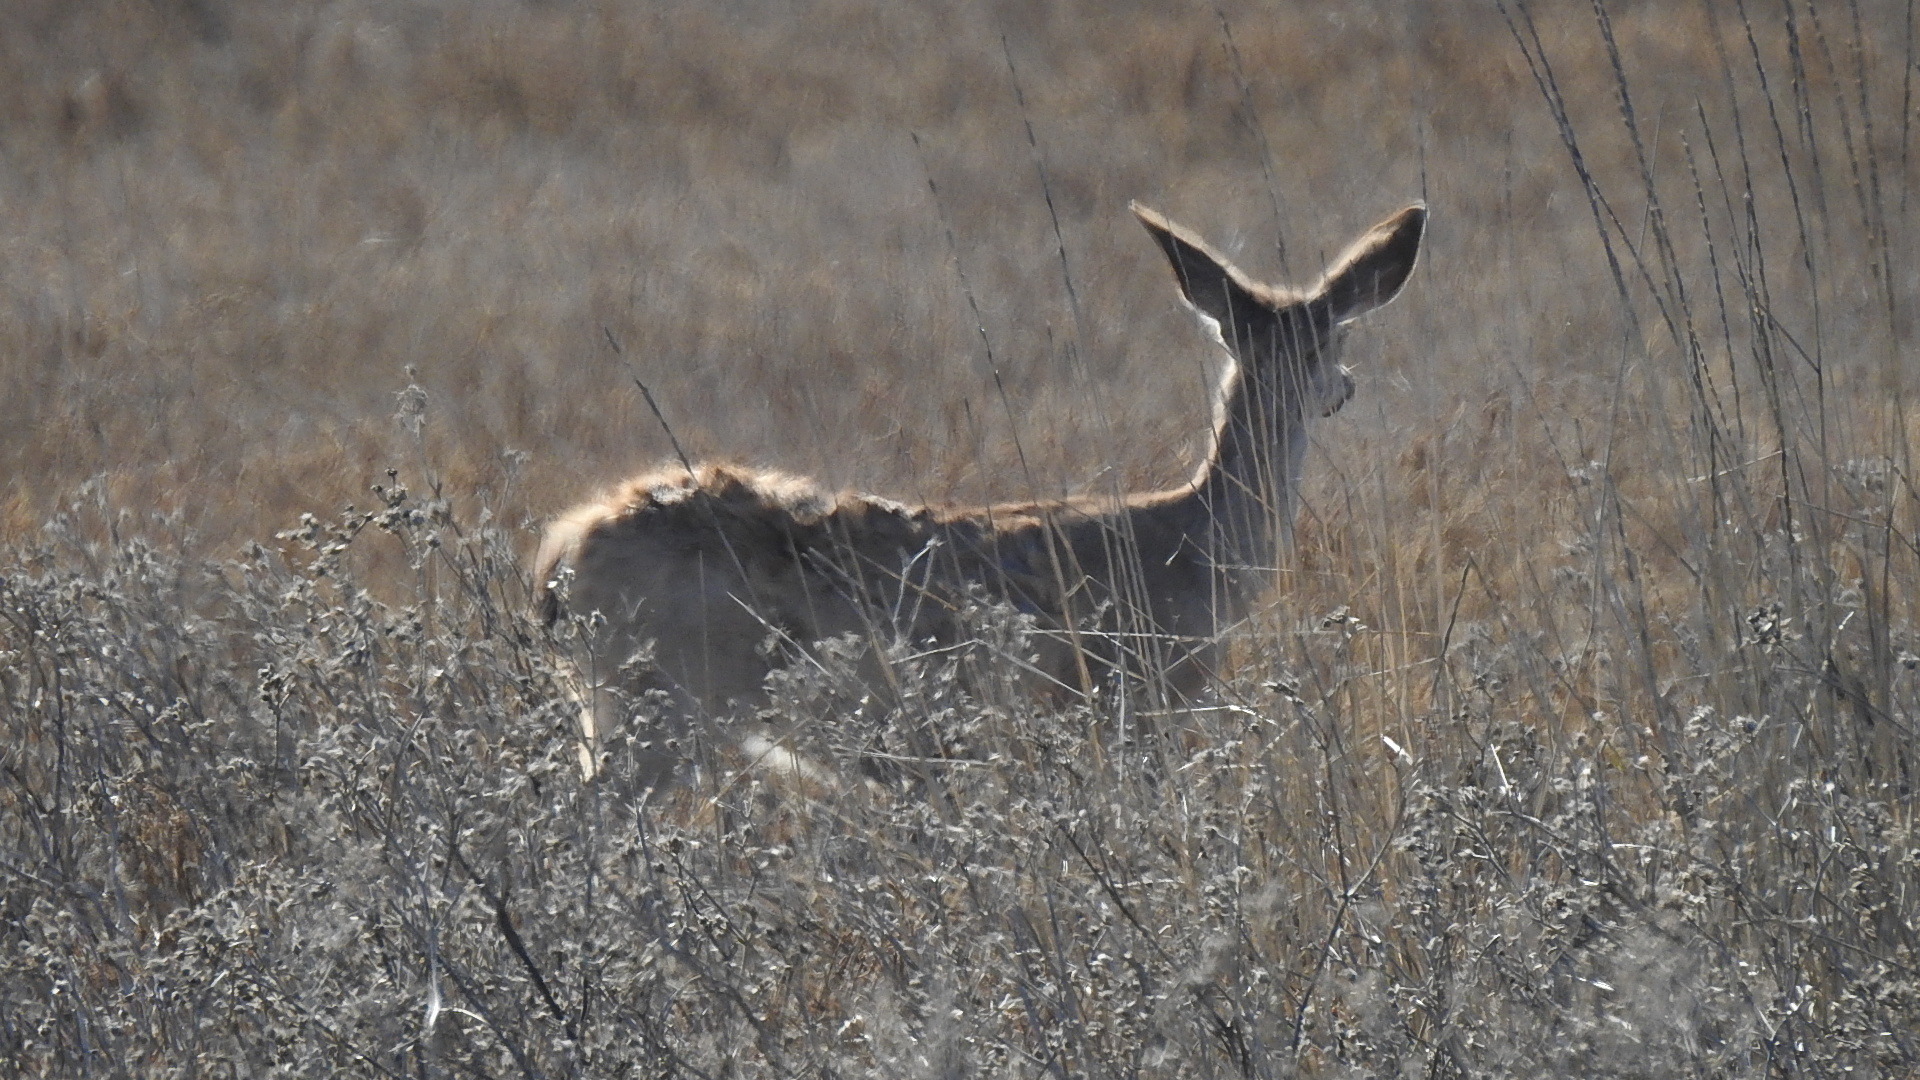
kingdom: Animalia
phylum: Chordata
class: Mammalia
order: Artiodactyla
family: Cervidae
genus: Odocoileus
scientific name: Odocoileus hemionus
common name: Mule deer
